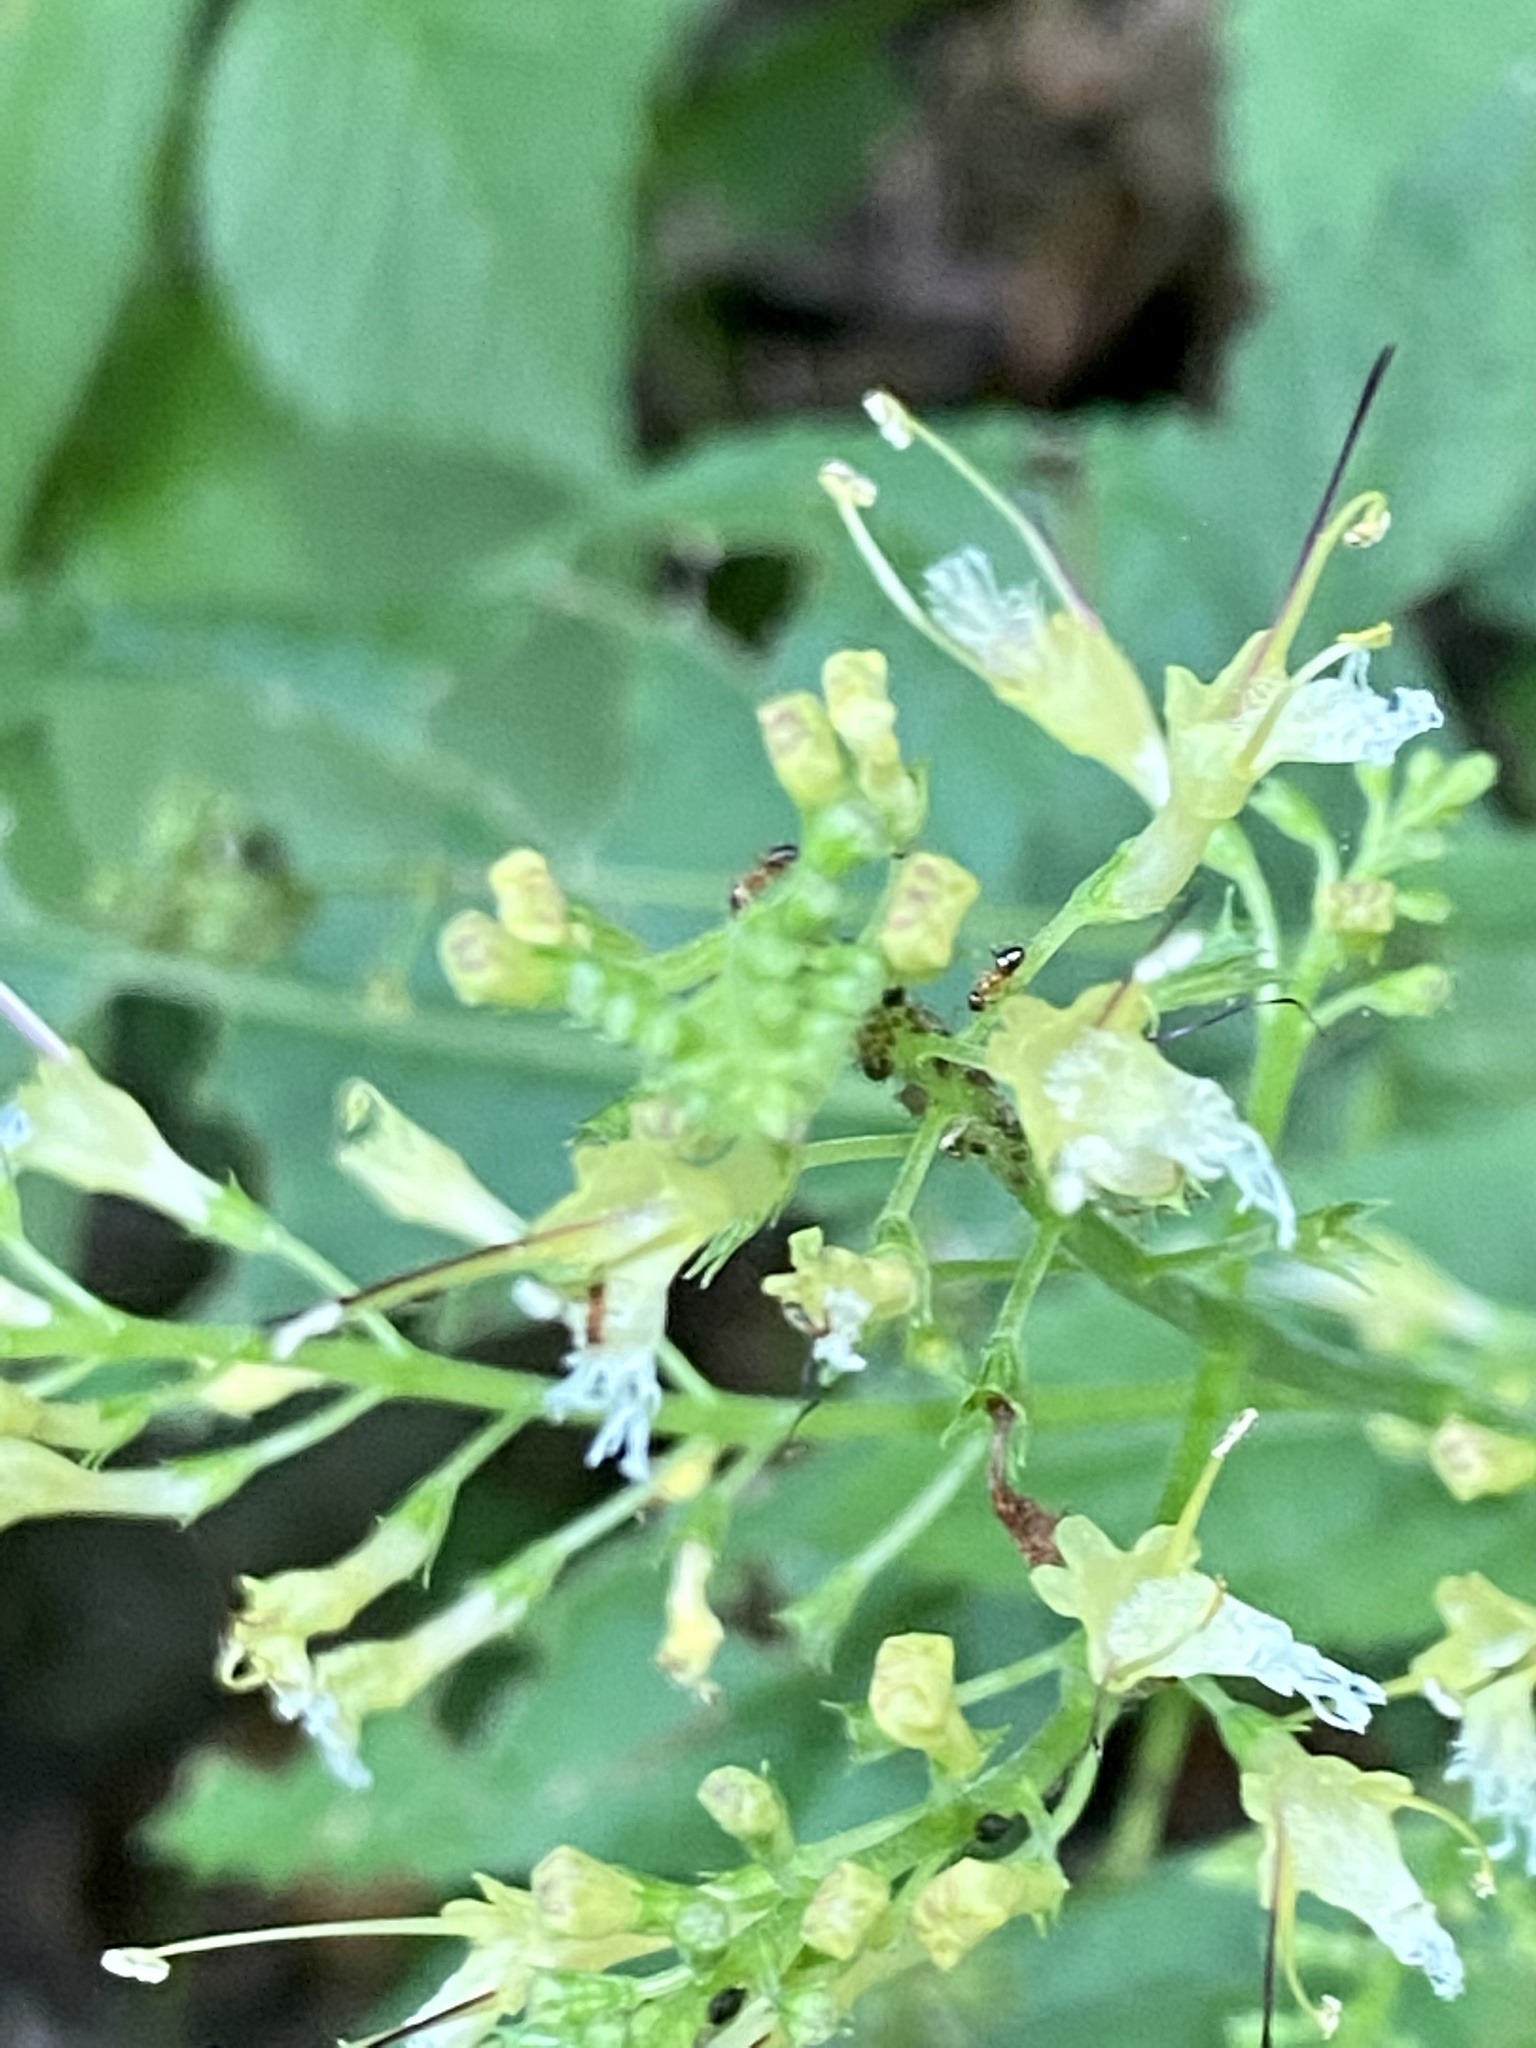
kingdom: Plantae
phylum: Tracheophyta
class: Magnoliopsida
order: Lamiales
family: Lamiaceae
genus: Collinsonia
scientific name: Collinsonia canadensis
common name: Northern horsebalm
